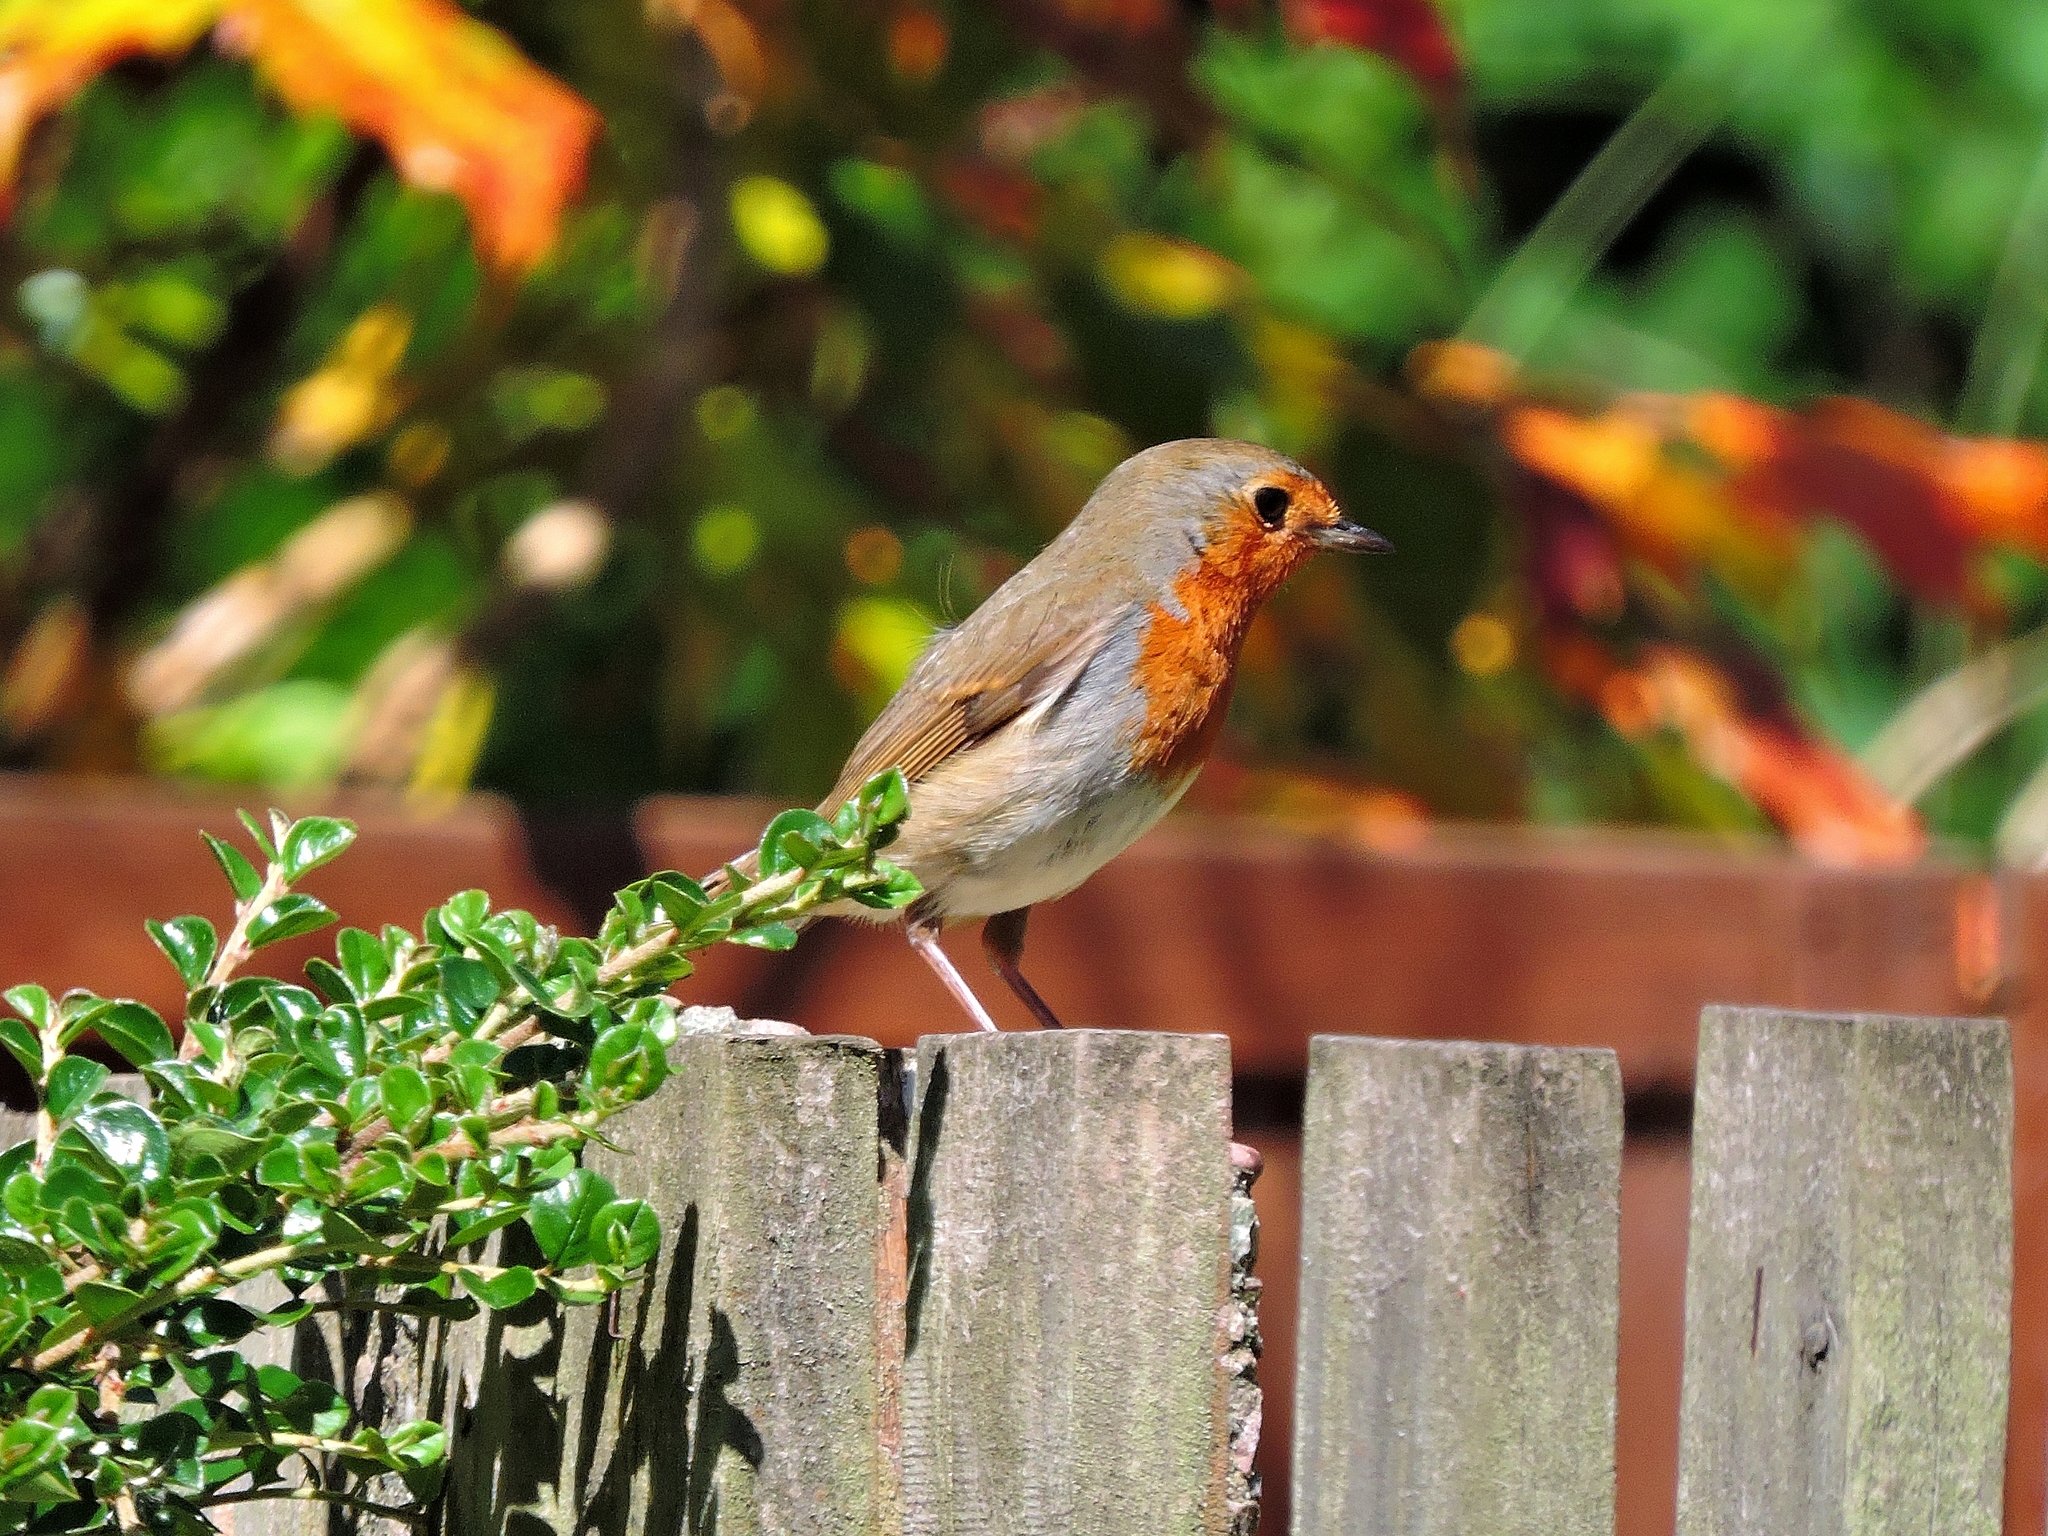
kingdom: Animalia
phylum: Chordata
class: Aves
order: Passeriformes
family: Muscicapidae
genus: Erithacus
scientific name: Erithacus rubecula
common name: European robin
